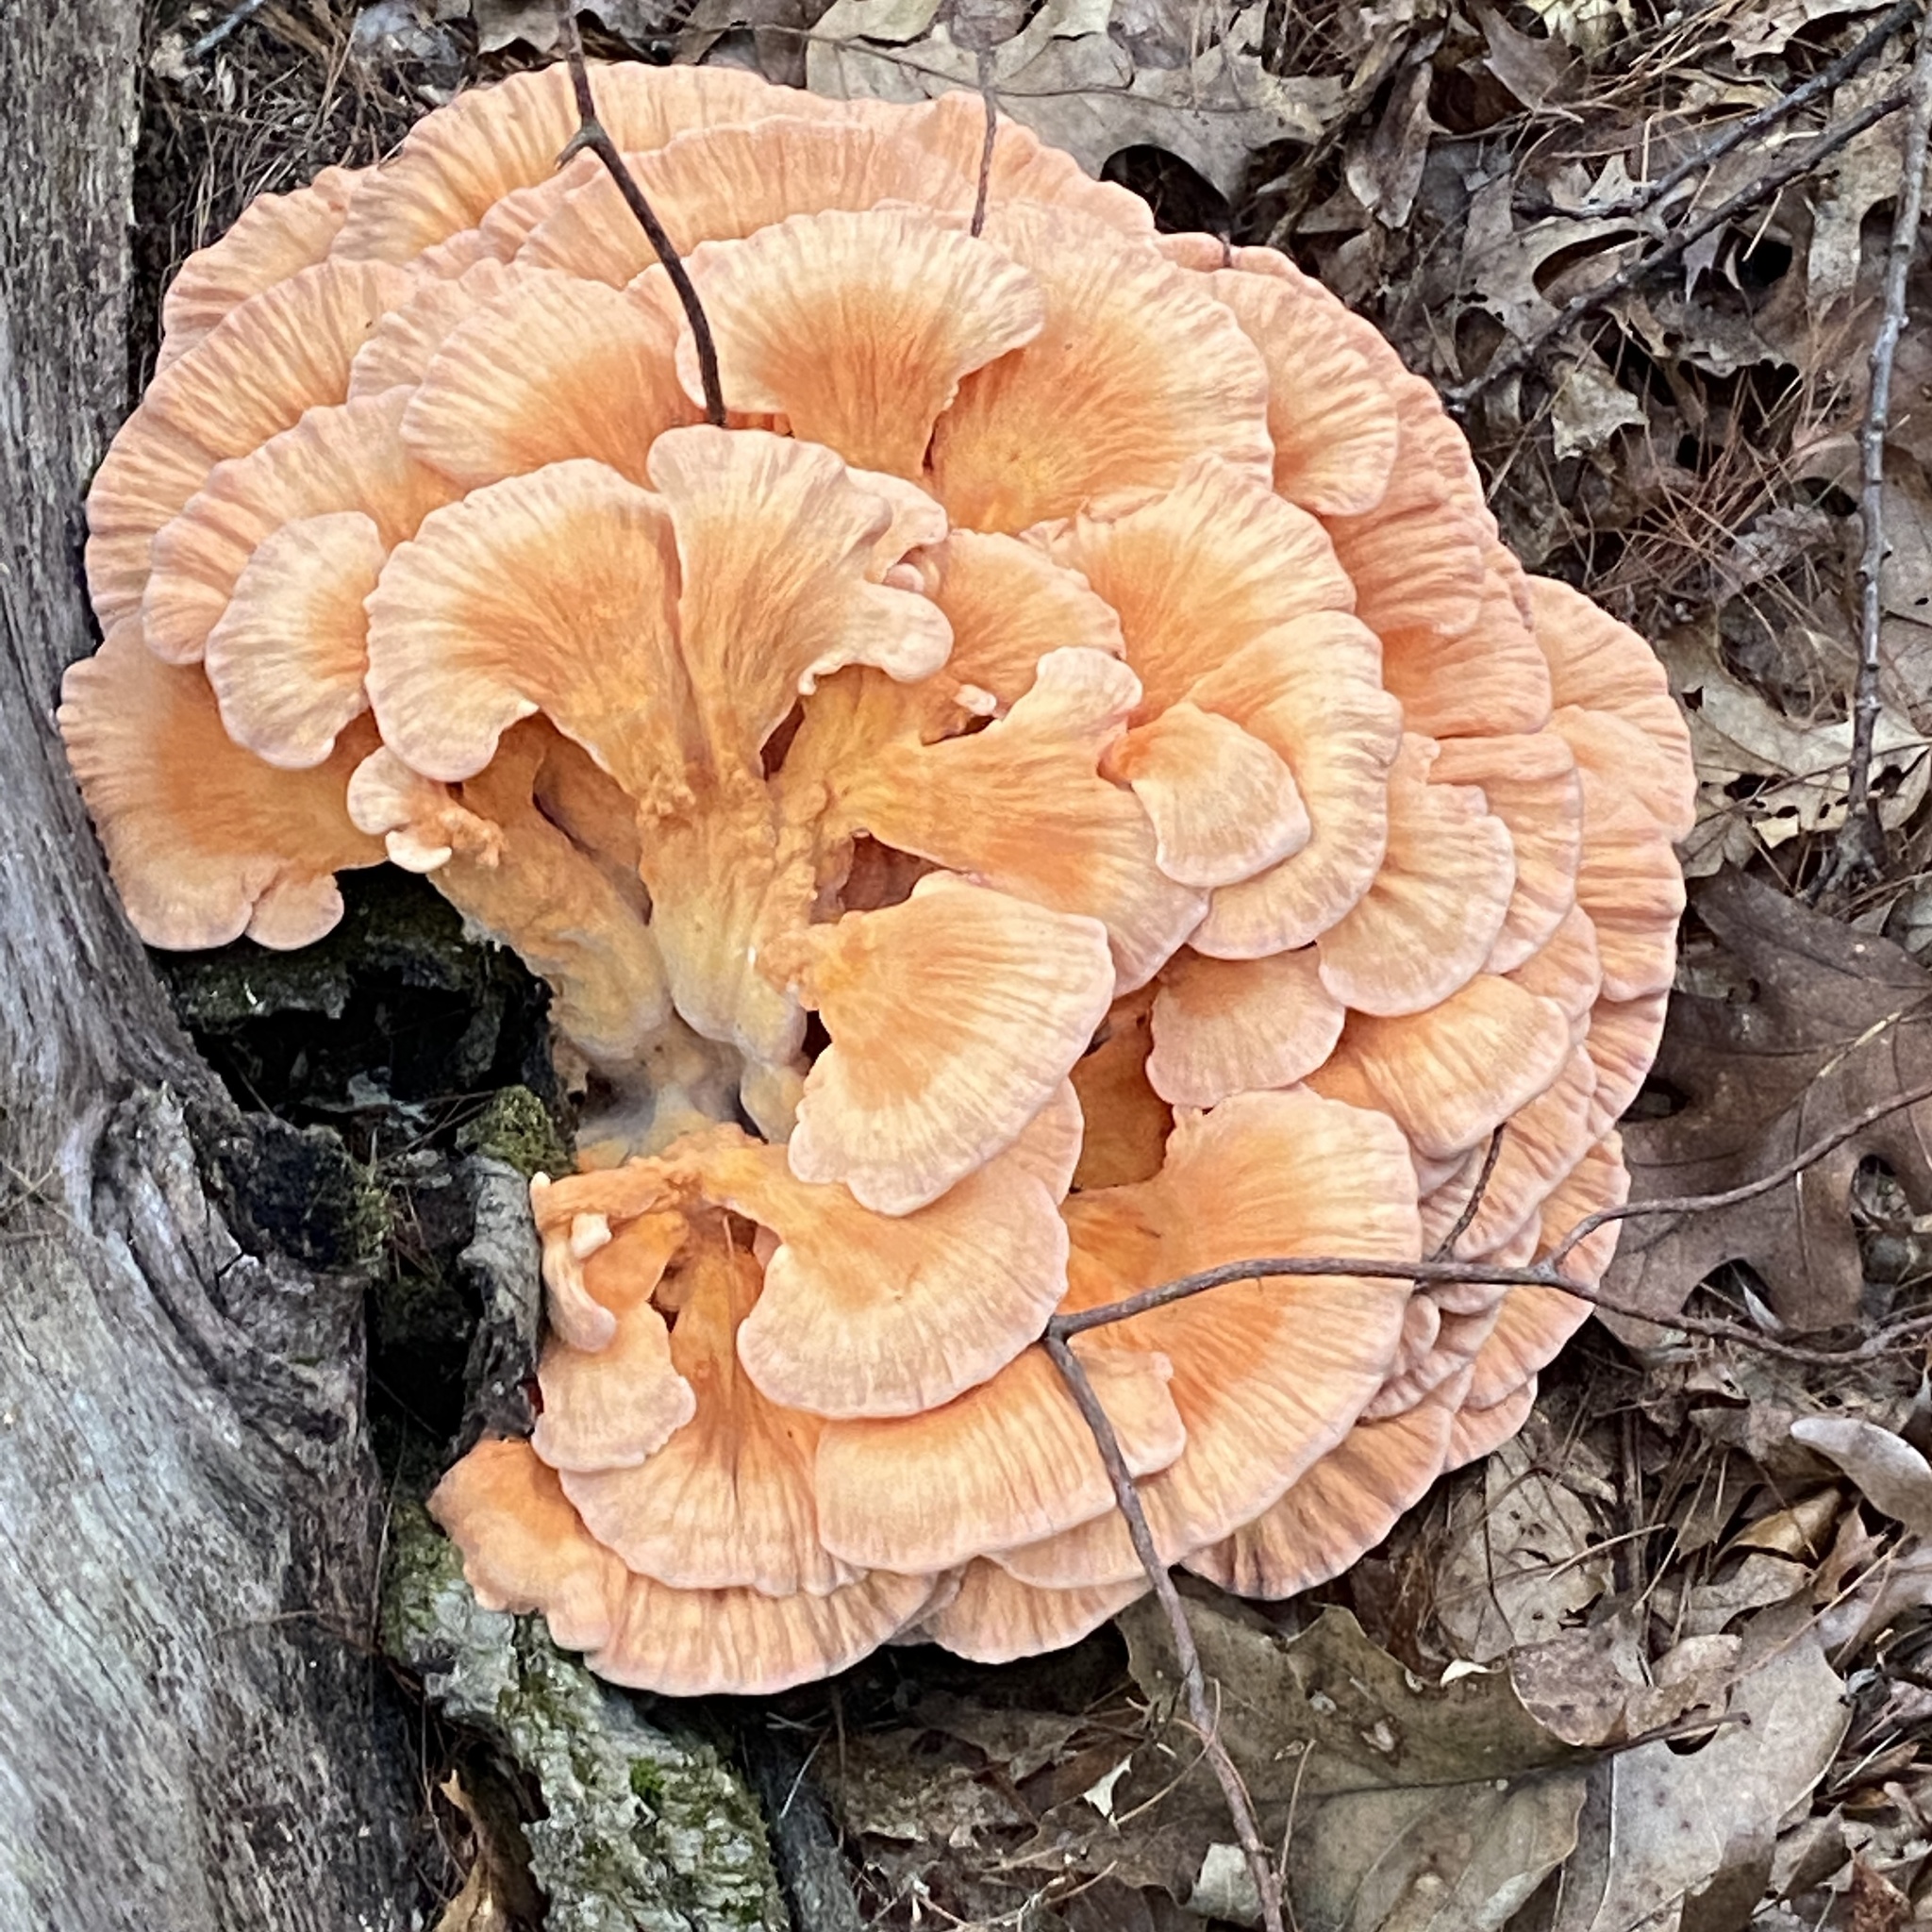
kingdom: Fungi
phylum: Basidiomycota
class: Agaricomycetes
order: Polyporales
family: Laetiporaceae
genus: Laetiporus
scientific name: Laetiporus sulphureus
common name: Chicken of the woods
